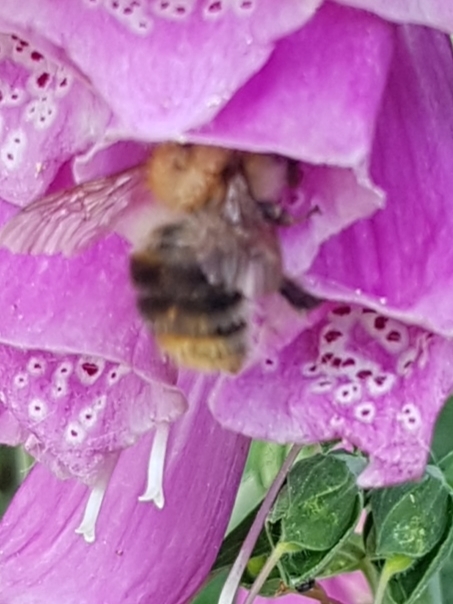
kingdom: Animalia
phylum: Arthropoda
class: Insecta
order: Hymenoptera
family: Apidae
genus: Bombus
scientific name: Bombus pascuorum
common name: Common carder bee
